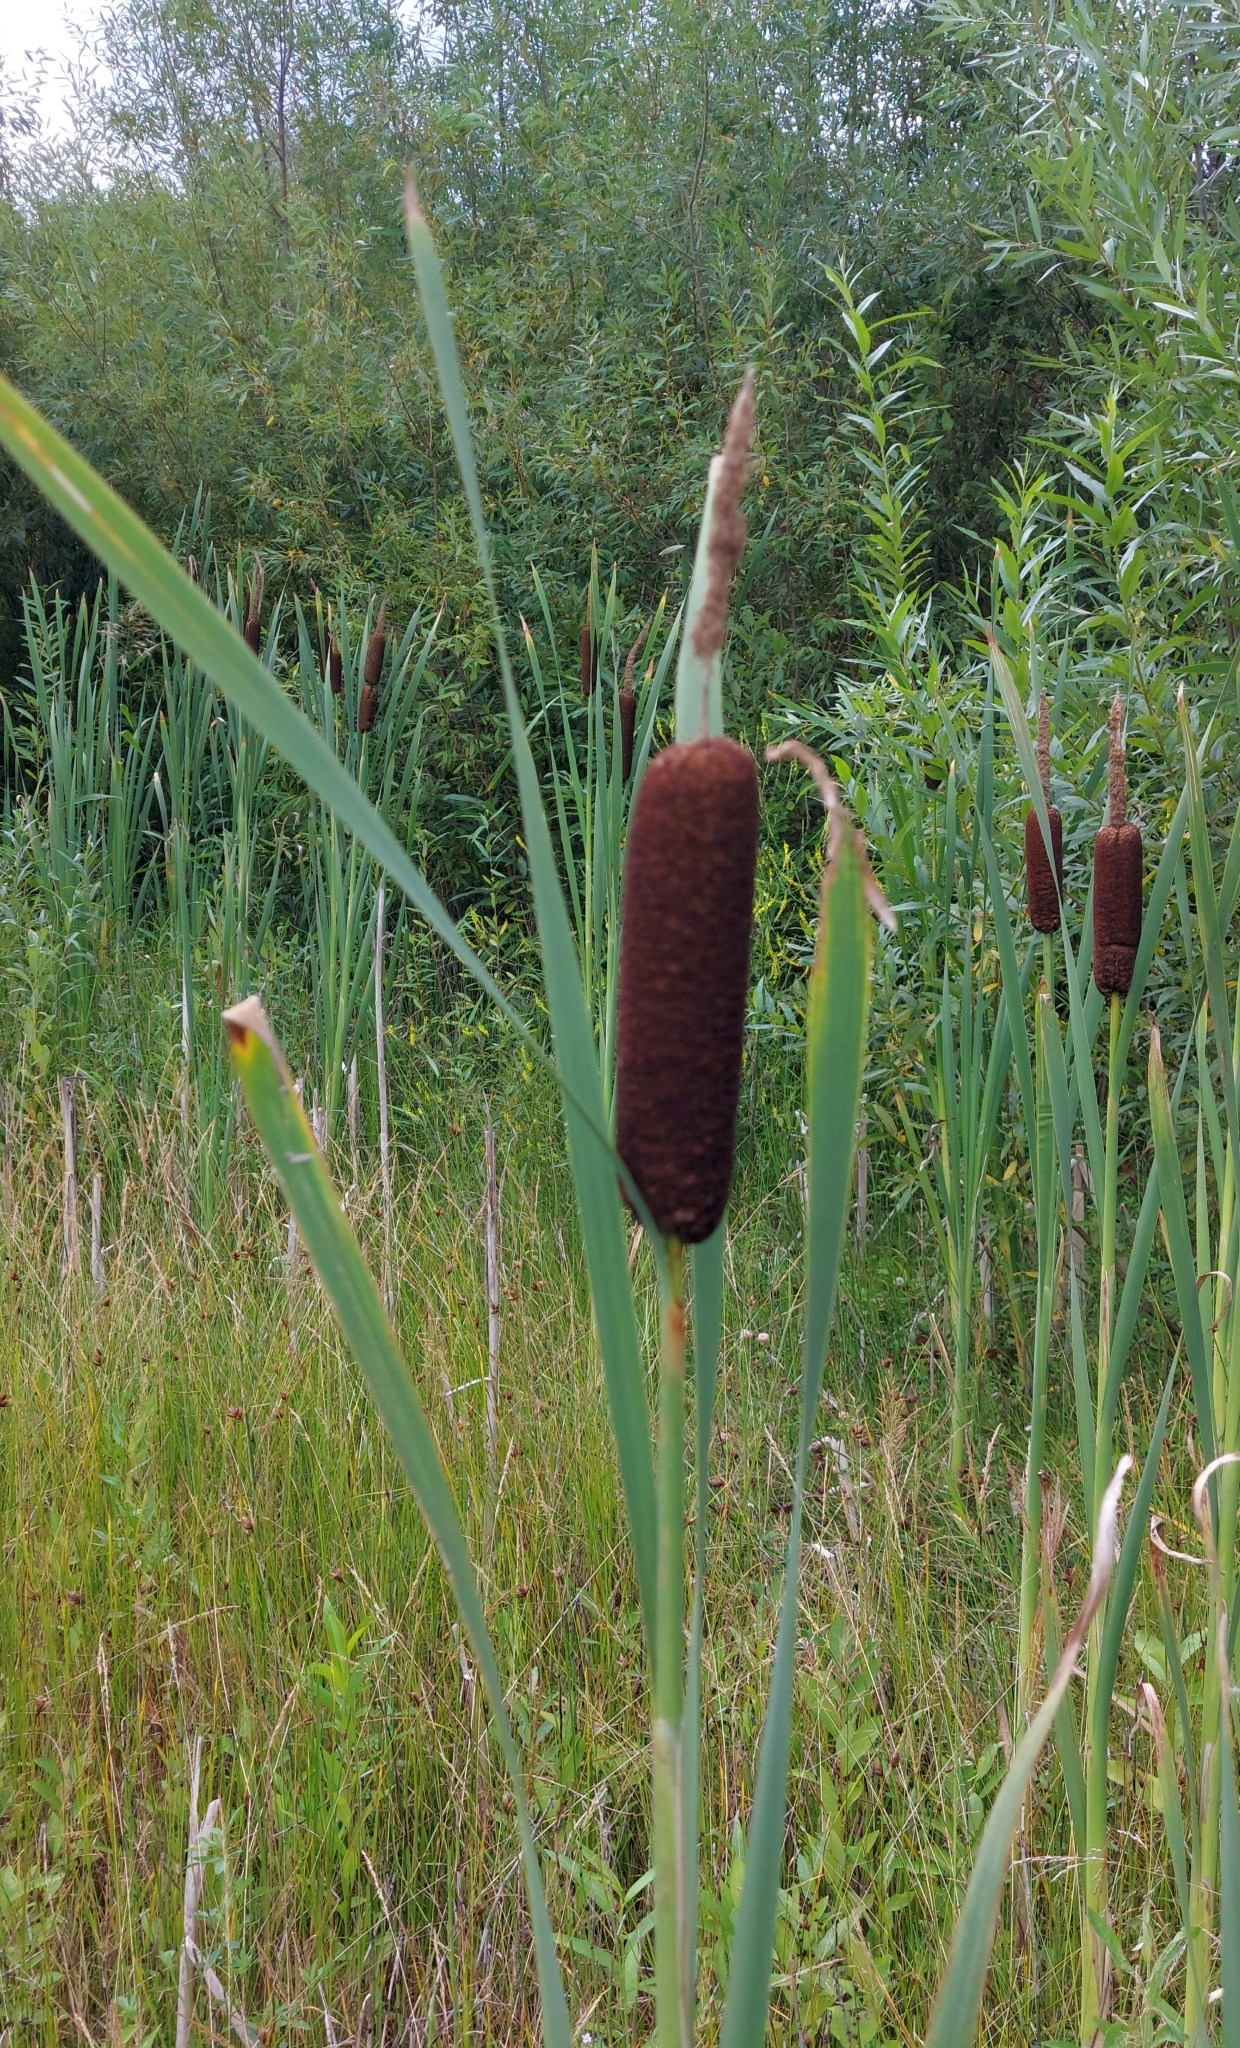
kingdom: Plantae
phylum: Tracheophyta
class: Liliopsida
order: Poales
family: Typhaceae
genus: Typha
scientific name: Typha latifolia
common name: Broadleaf cattail
